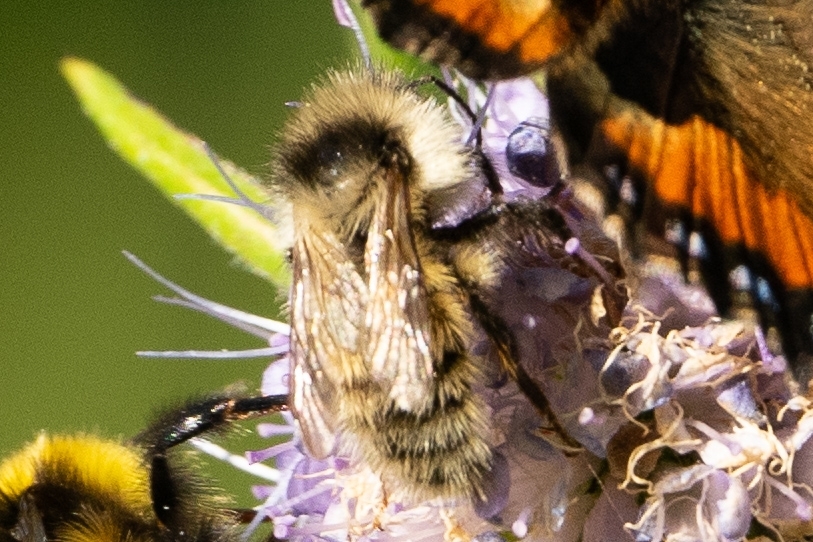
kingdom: Animalia
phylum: Arthropoda
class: Insecta
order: Hymenoptera
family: Apidae
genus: Bombus
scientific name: Bombus veteranus
